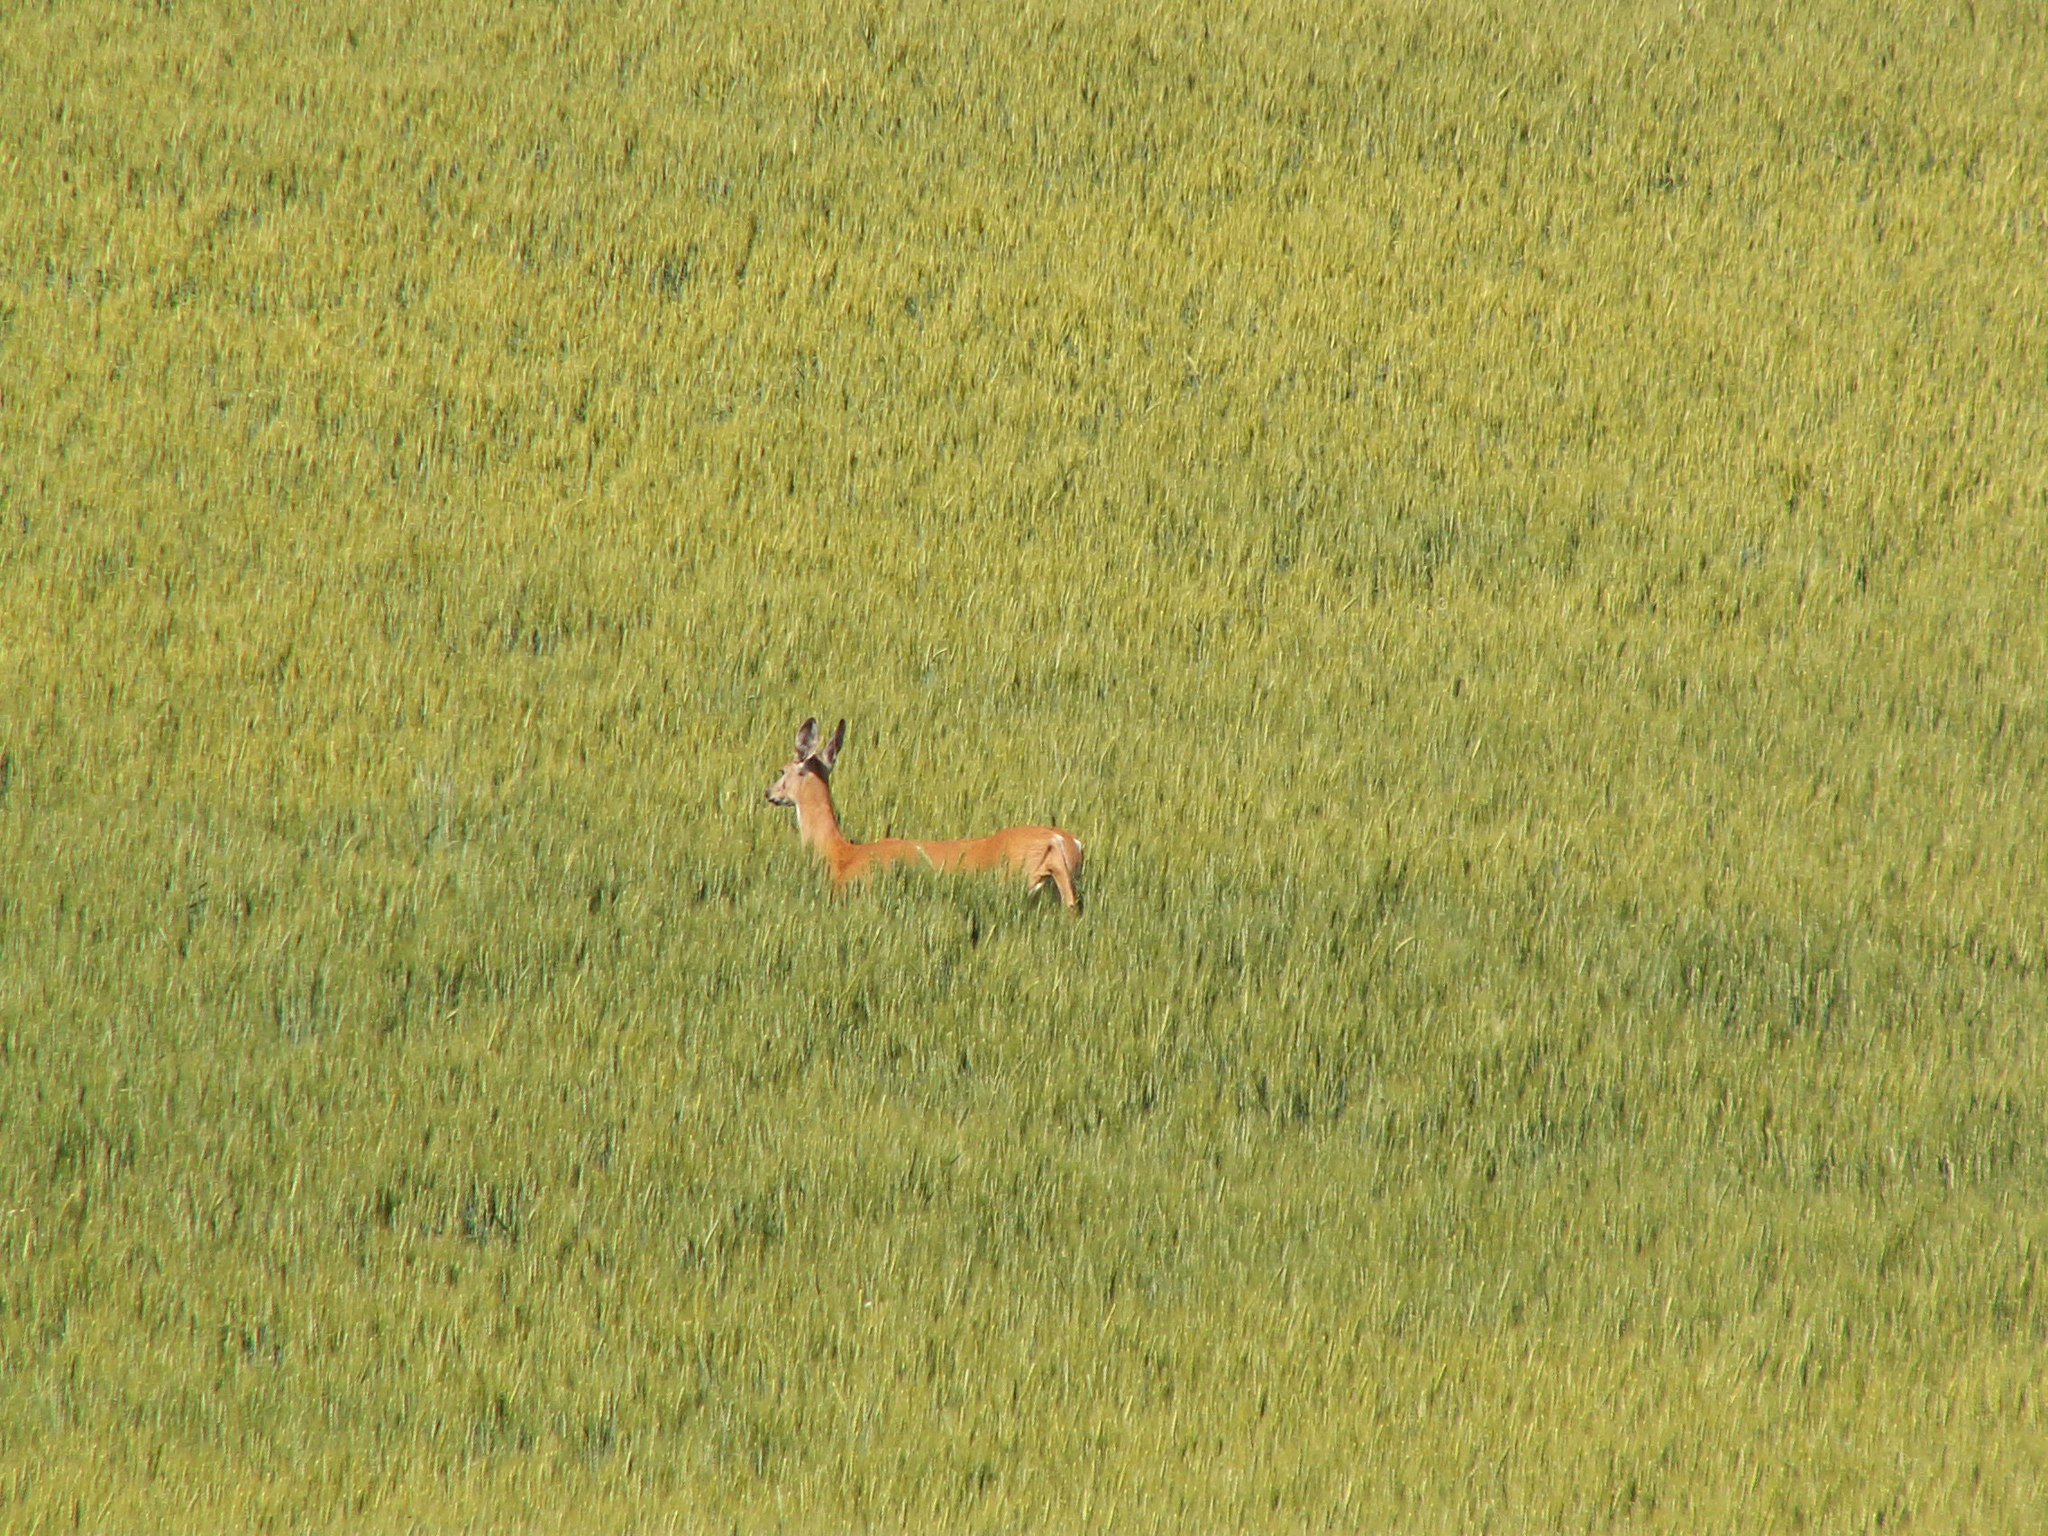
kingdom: Animalia
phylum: Chordata
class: Mammalia
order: Artiodactyla
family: Cervidae
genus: Odocoileus
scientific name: Odocoileus virginianus
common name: White-tailed deer
